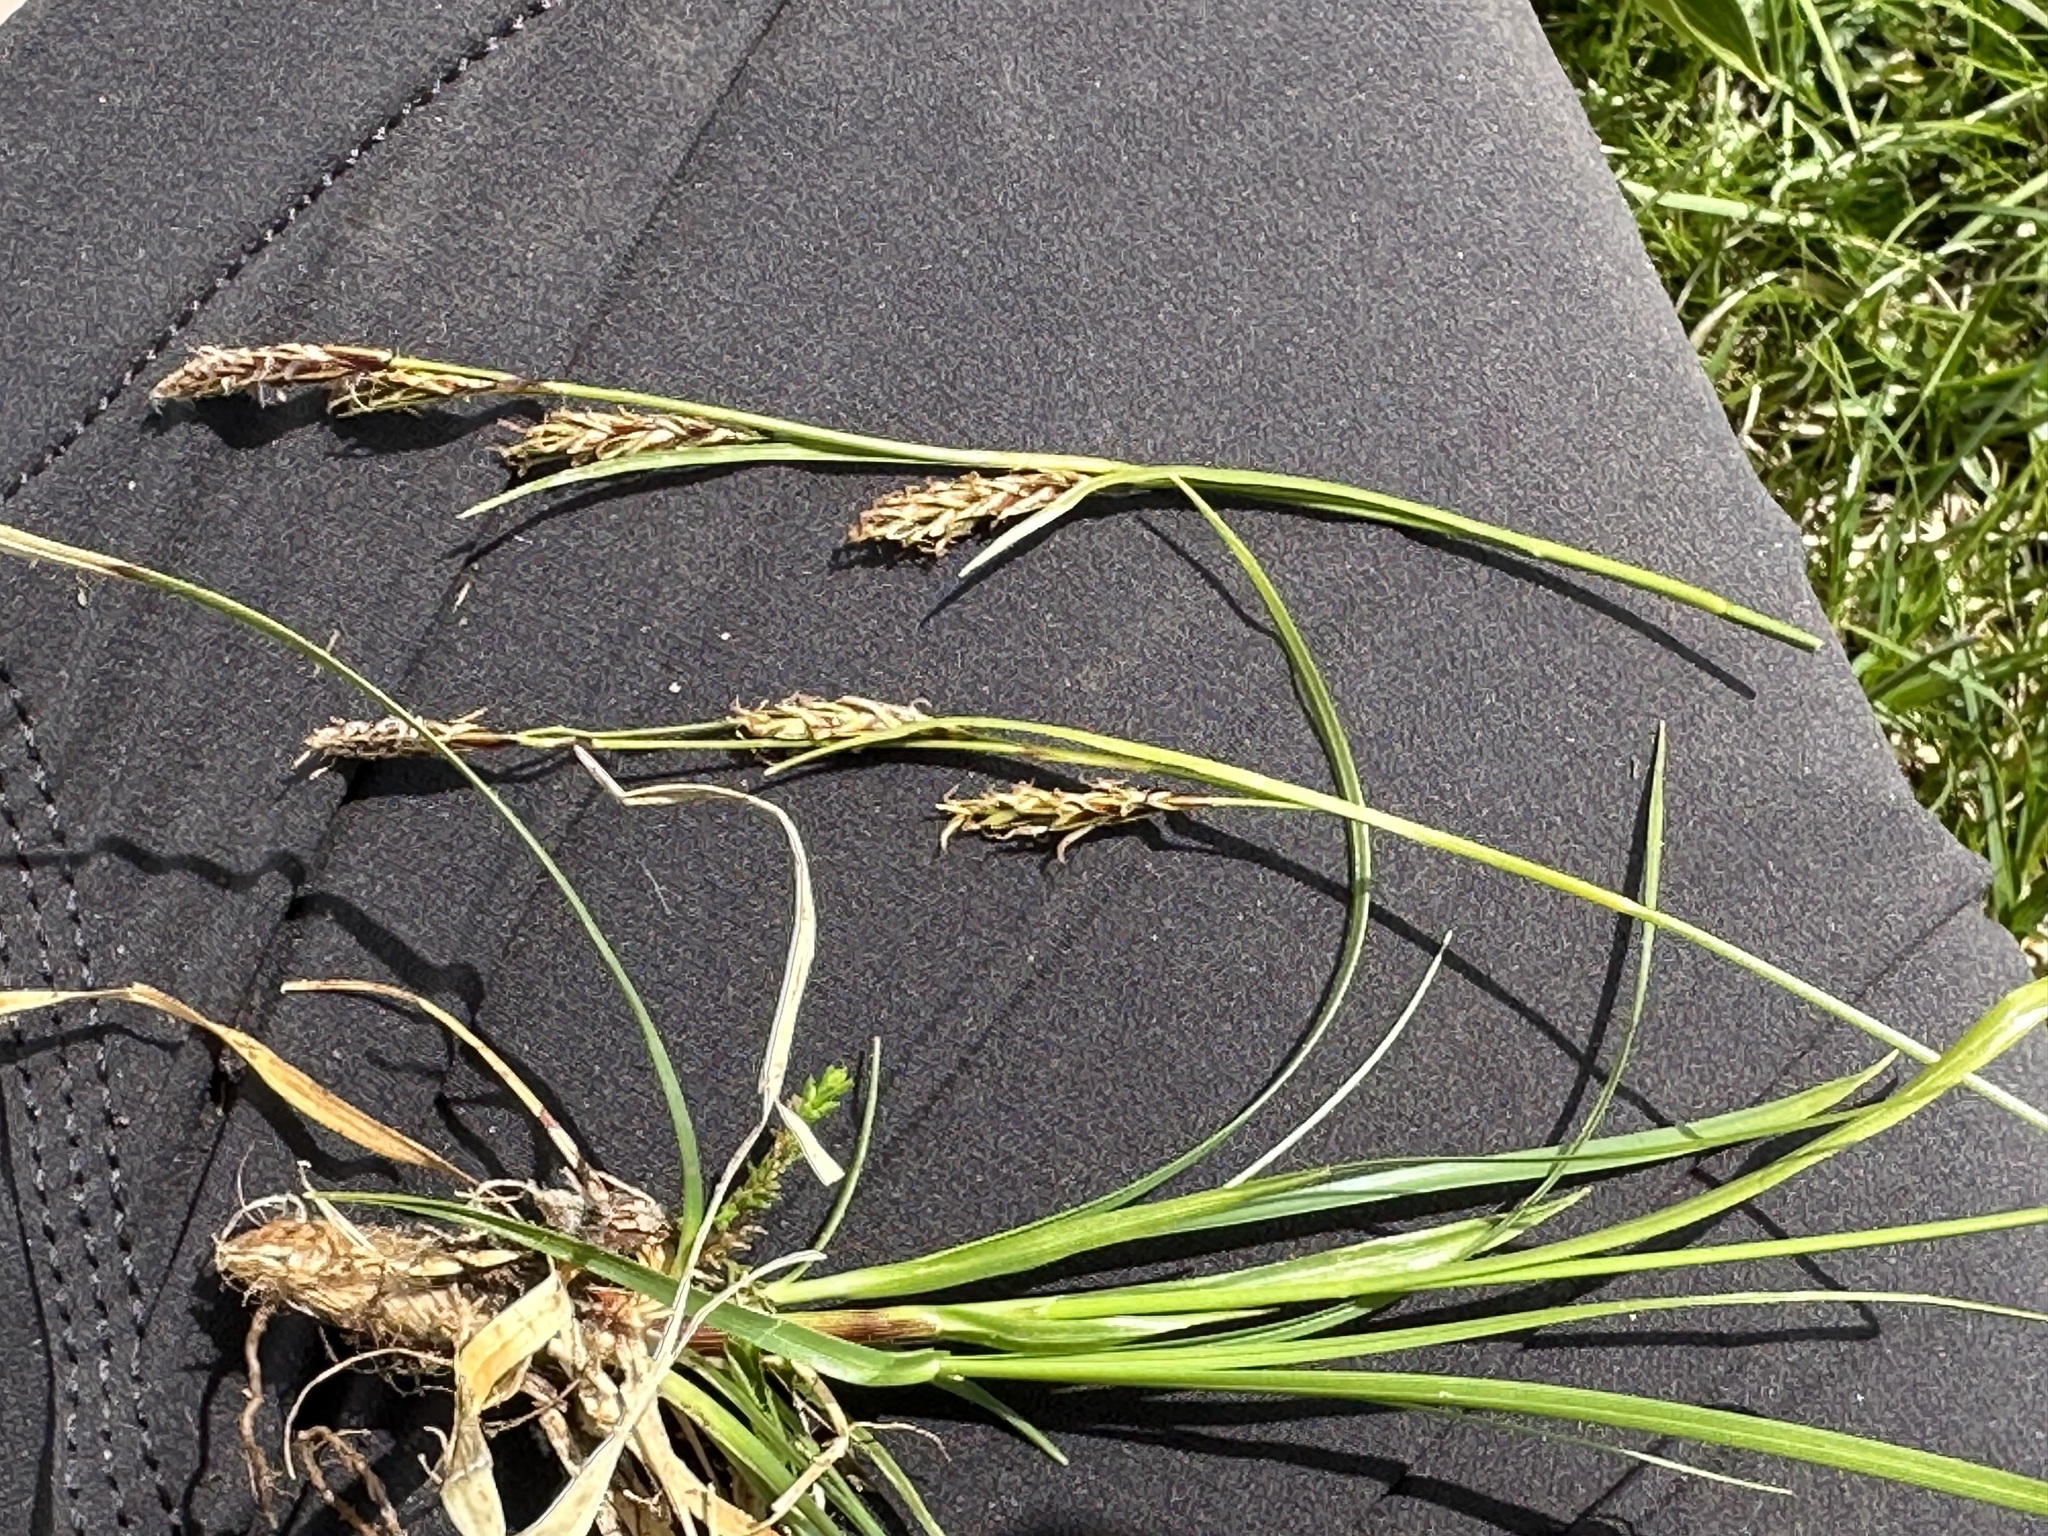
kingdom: Plantae
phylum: Tracheophyta
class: Liliopsida
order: Poales
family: Cyperaceae
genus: Carex
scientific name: Carex sempervirens
